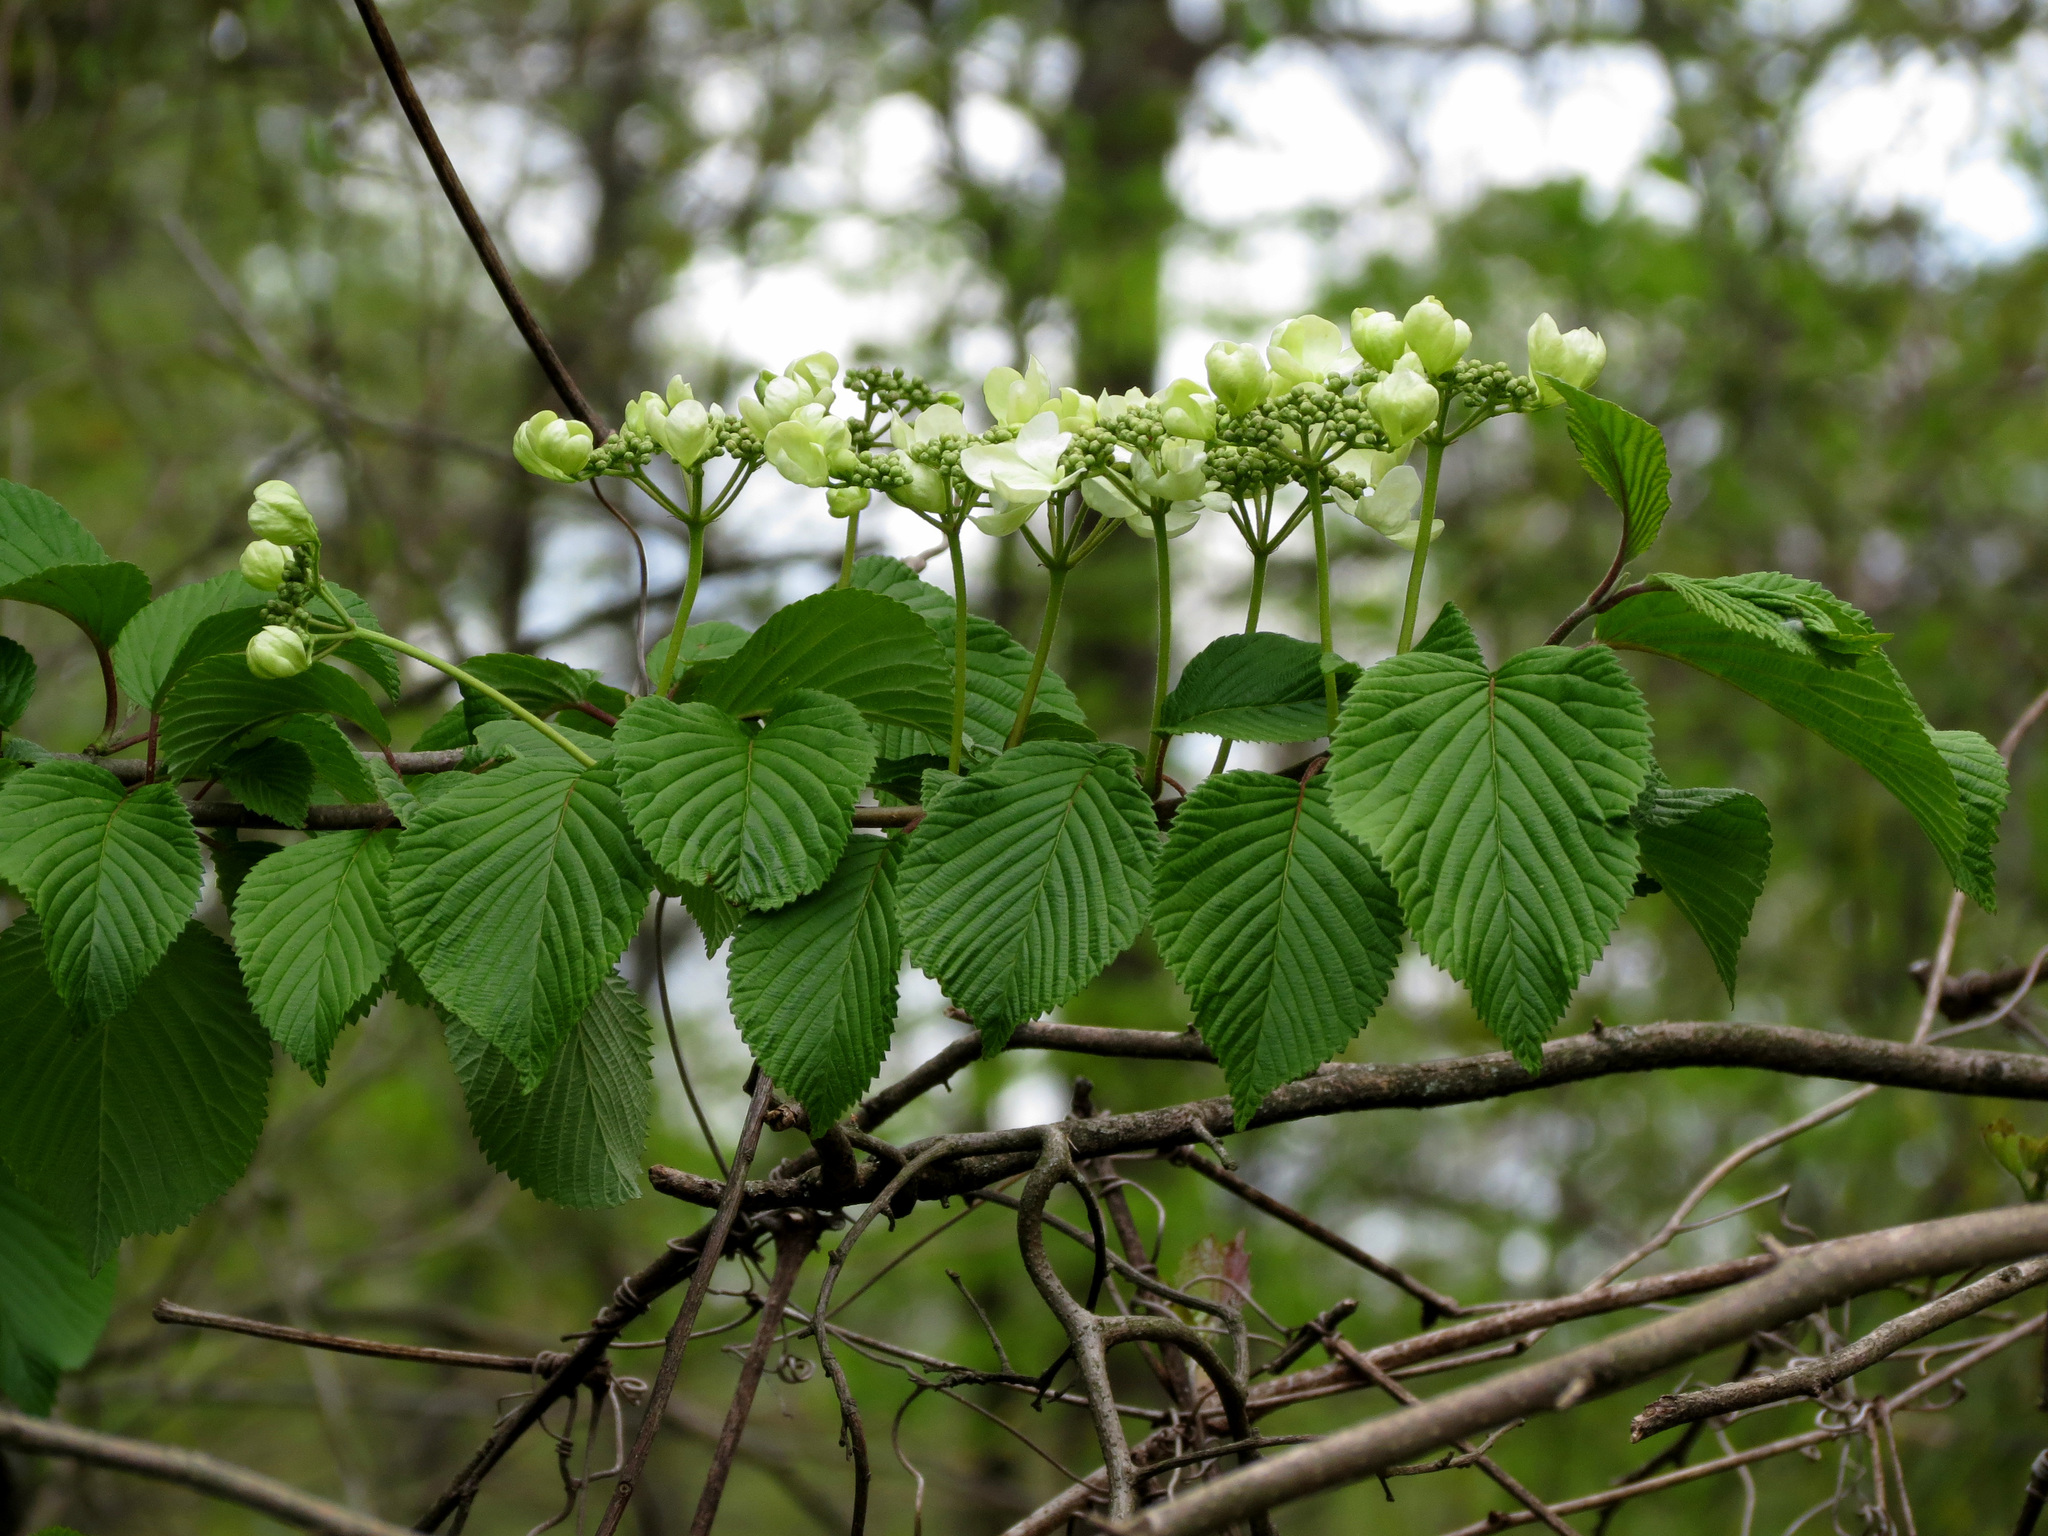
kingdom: Plantae
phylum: Tracheophyta
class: Magnoliopsida
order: Dipsacales
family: Viburnaceae
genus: Viburnum
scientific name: Viburnum plicatum
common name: Japanese snowball
